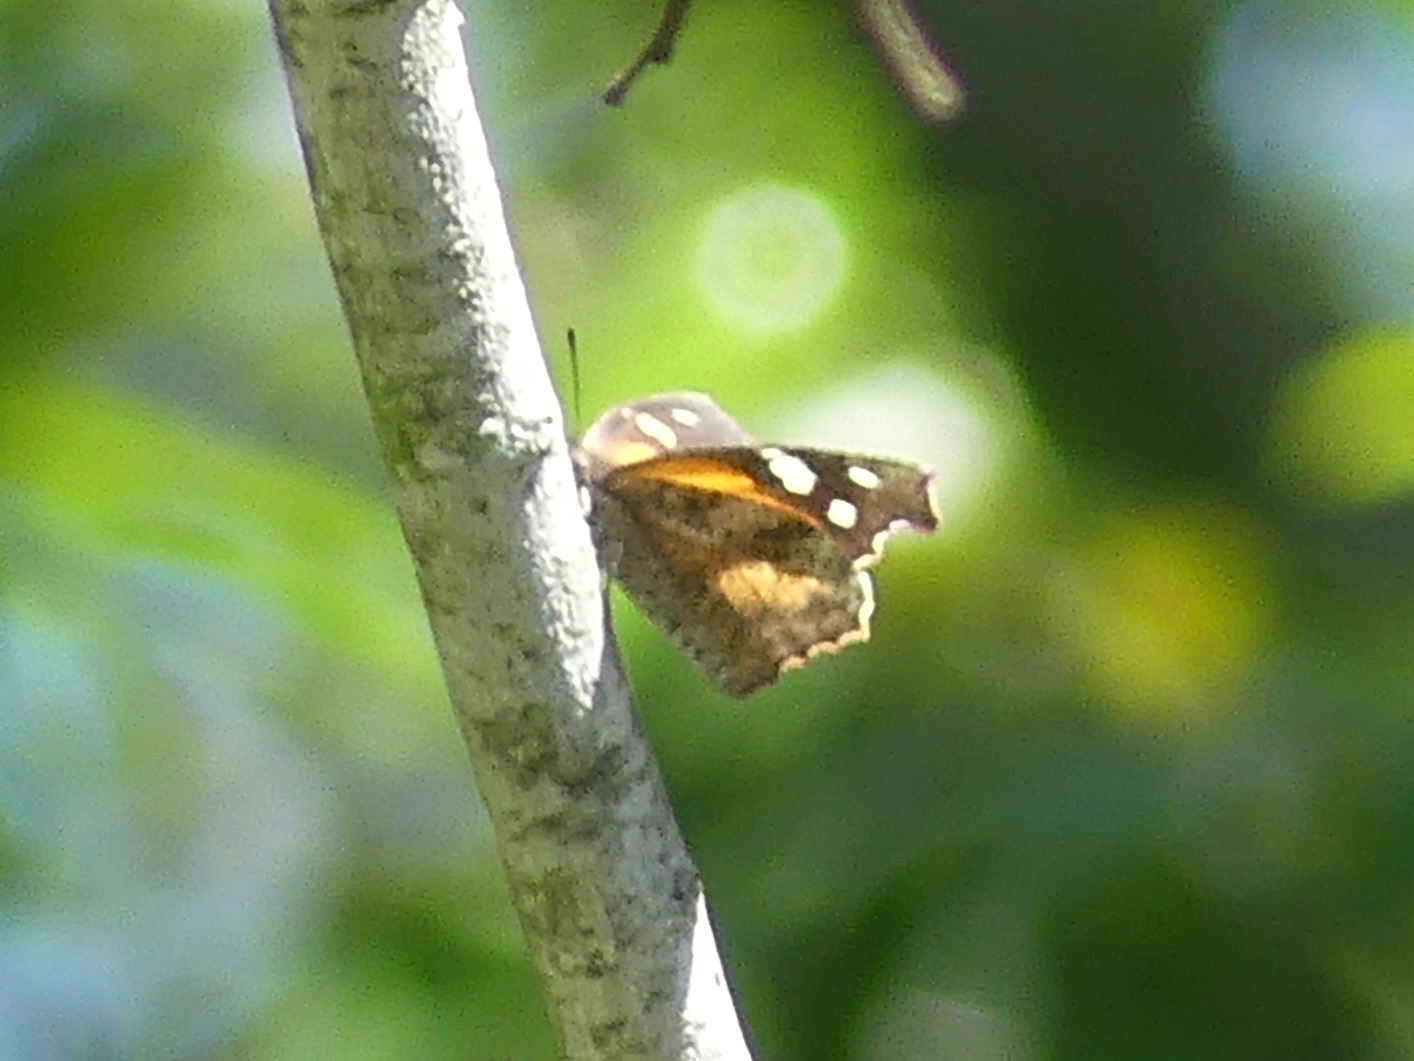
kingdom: Animalia
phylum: Arthropoda
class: Insecta
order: Lepidoptera
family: Nymphalidae
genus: Libytheana
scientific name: Libytheana carinenta
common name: American snout
